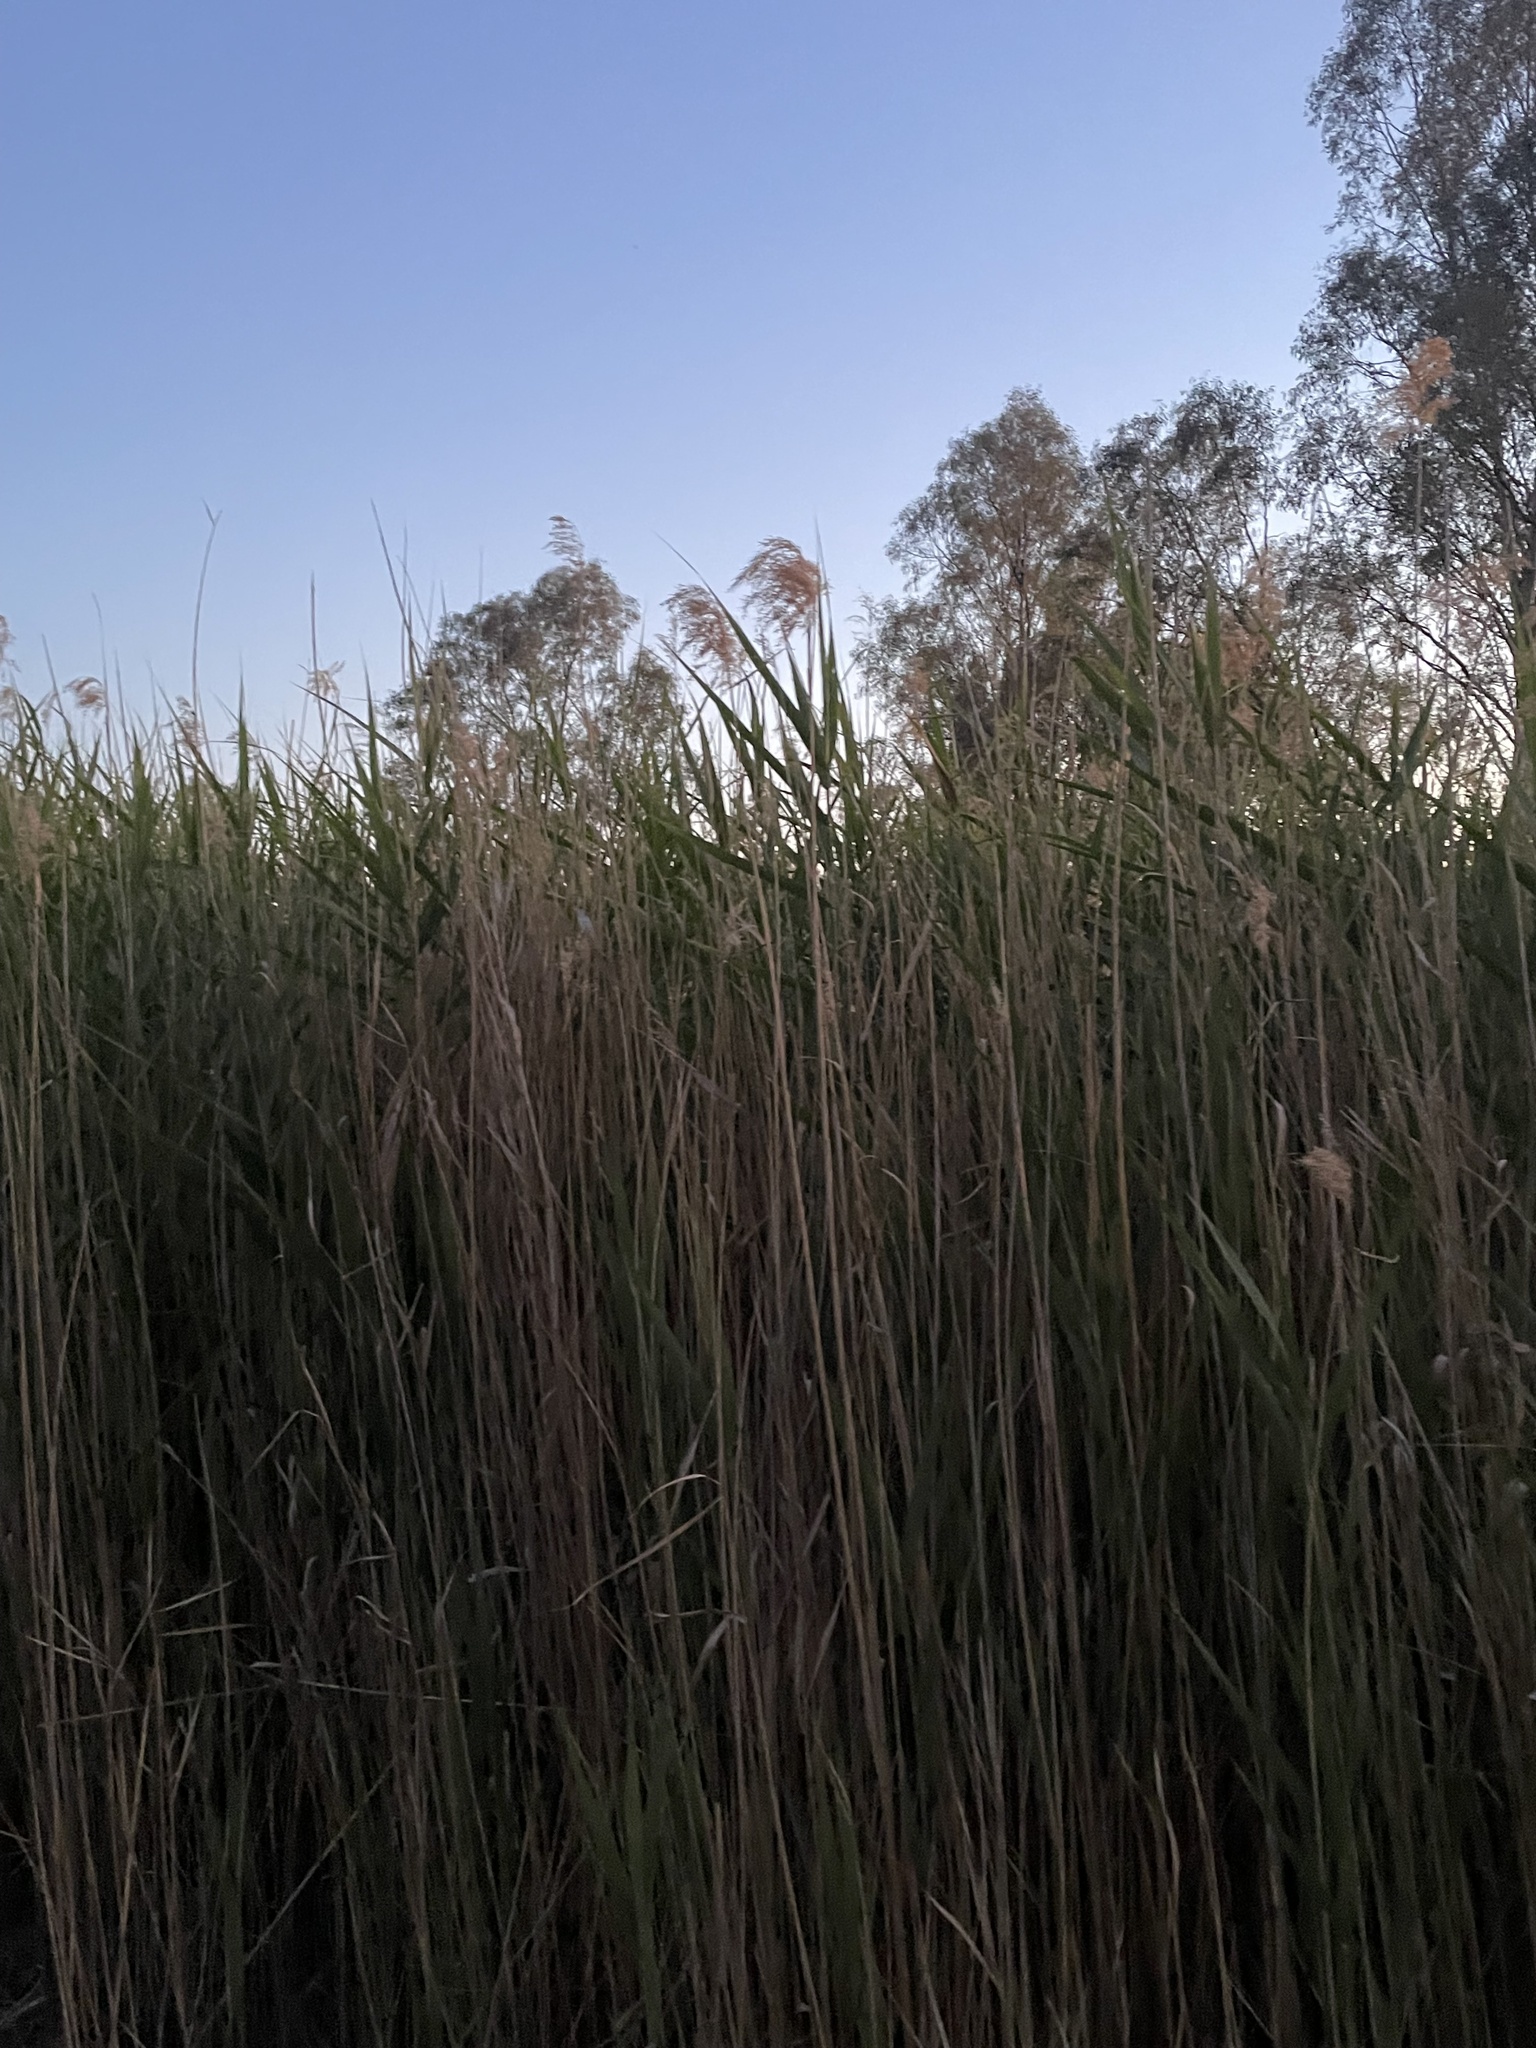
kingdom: Plantae
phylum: Tracheophyta
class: Liliopsida
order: Poales
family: Poaceae
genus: Phragmites
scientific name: Phragmites australis
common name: Common reed
